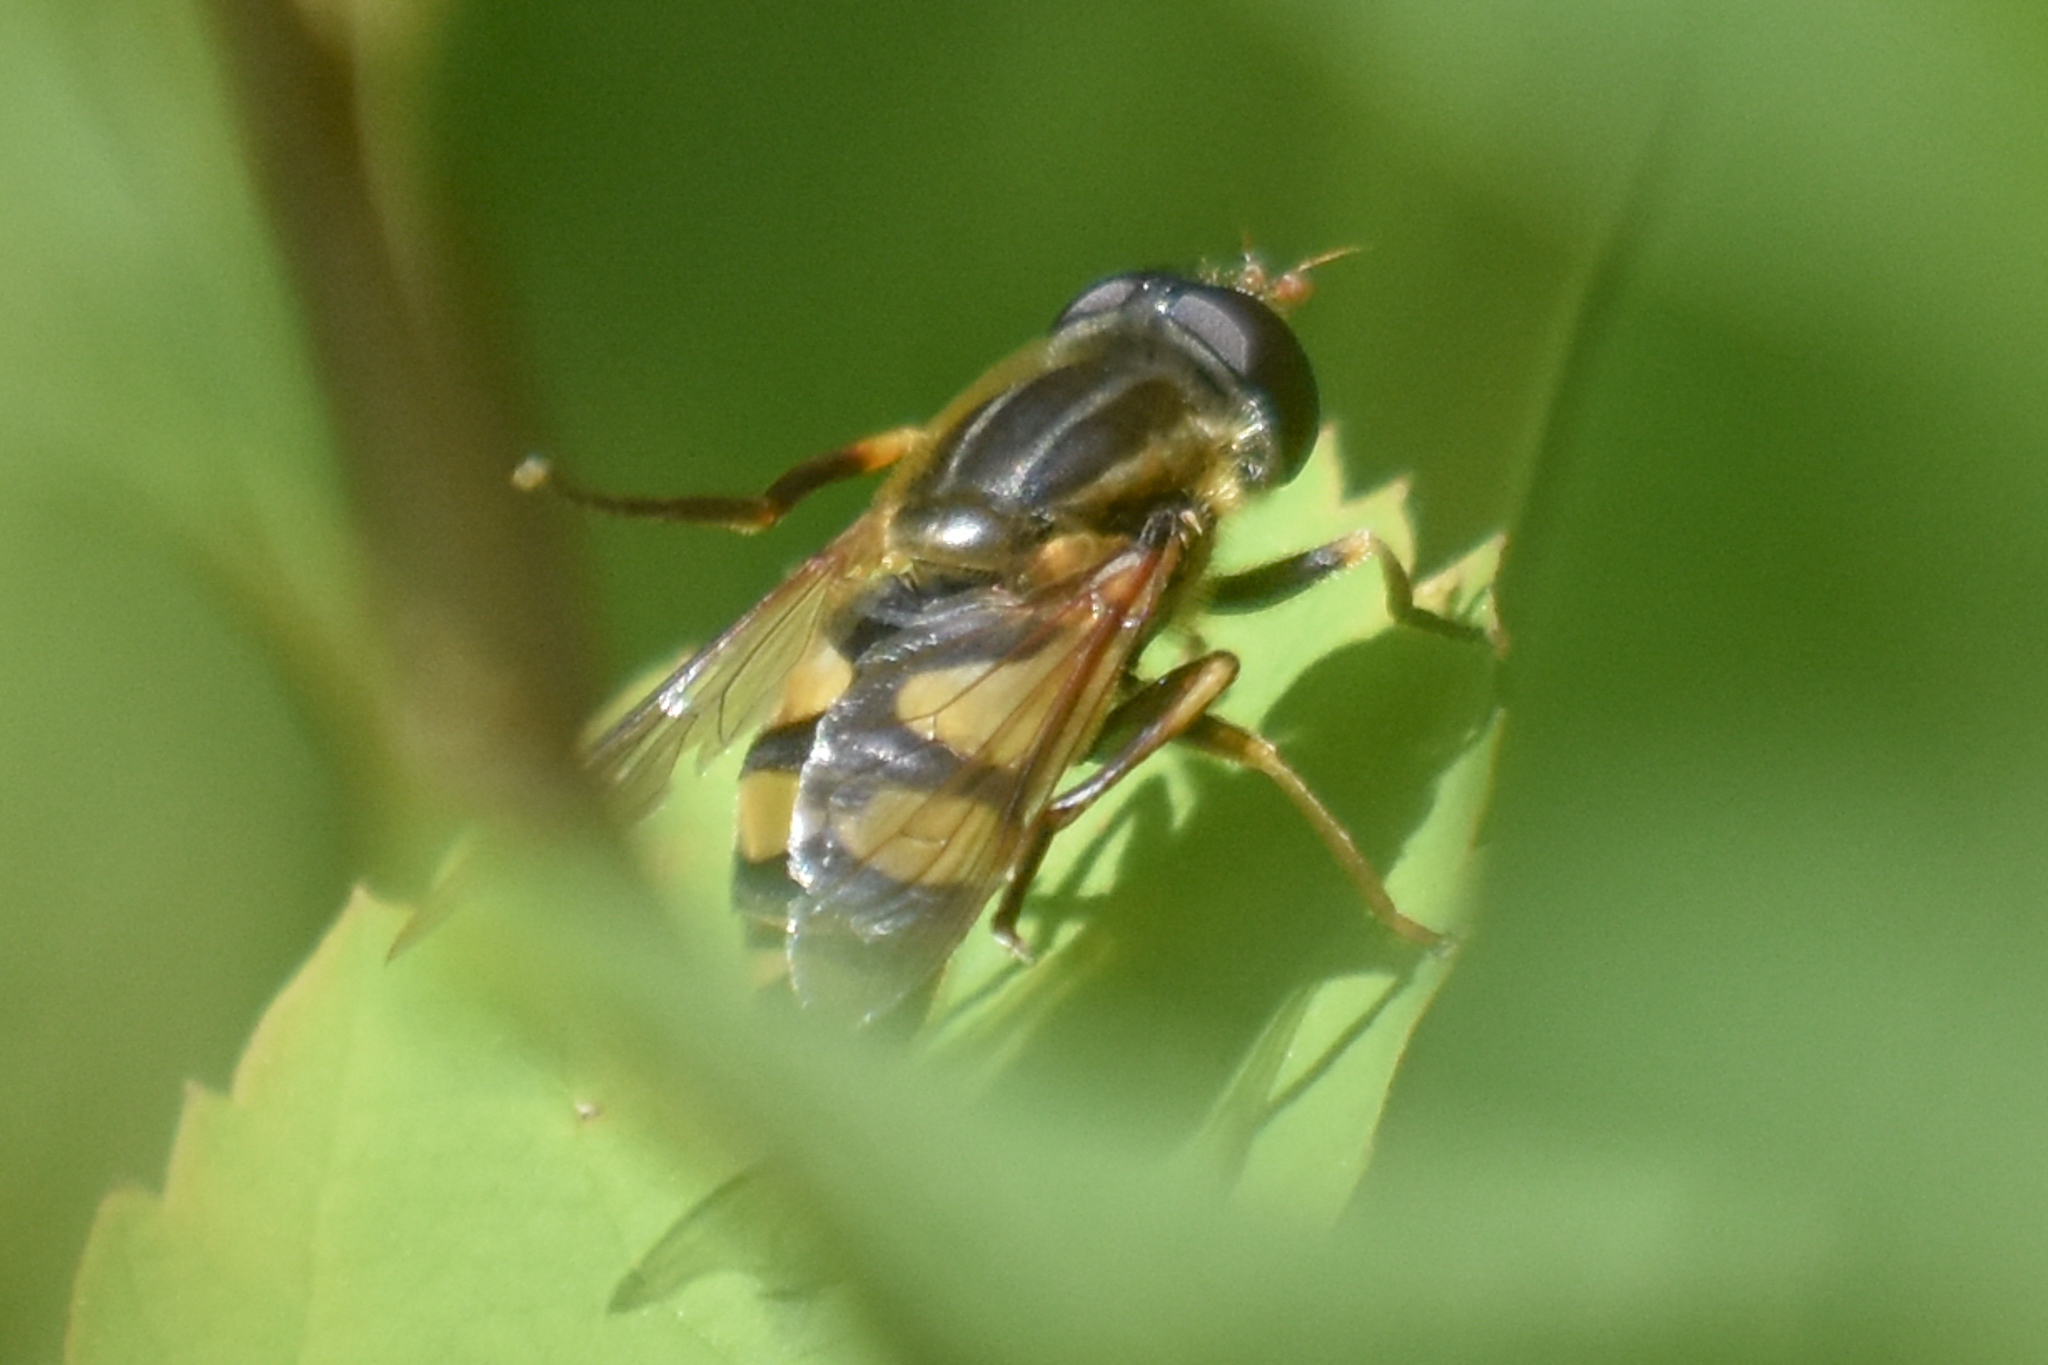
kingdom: Animalia
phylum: Arthropoda
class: Insecta
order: Diptera
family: Syrphidae
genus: Helophilus
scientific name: Helophilus fasciatus
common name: Narrow-headed marsh fly
